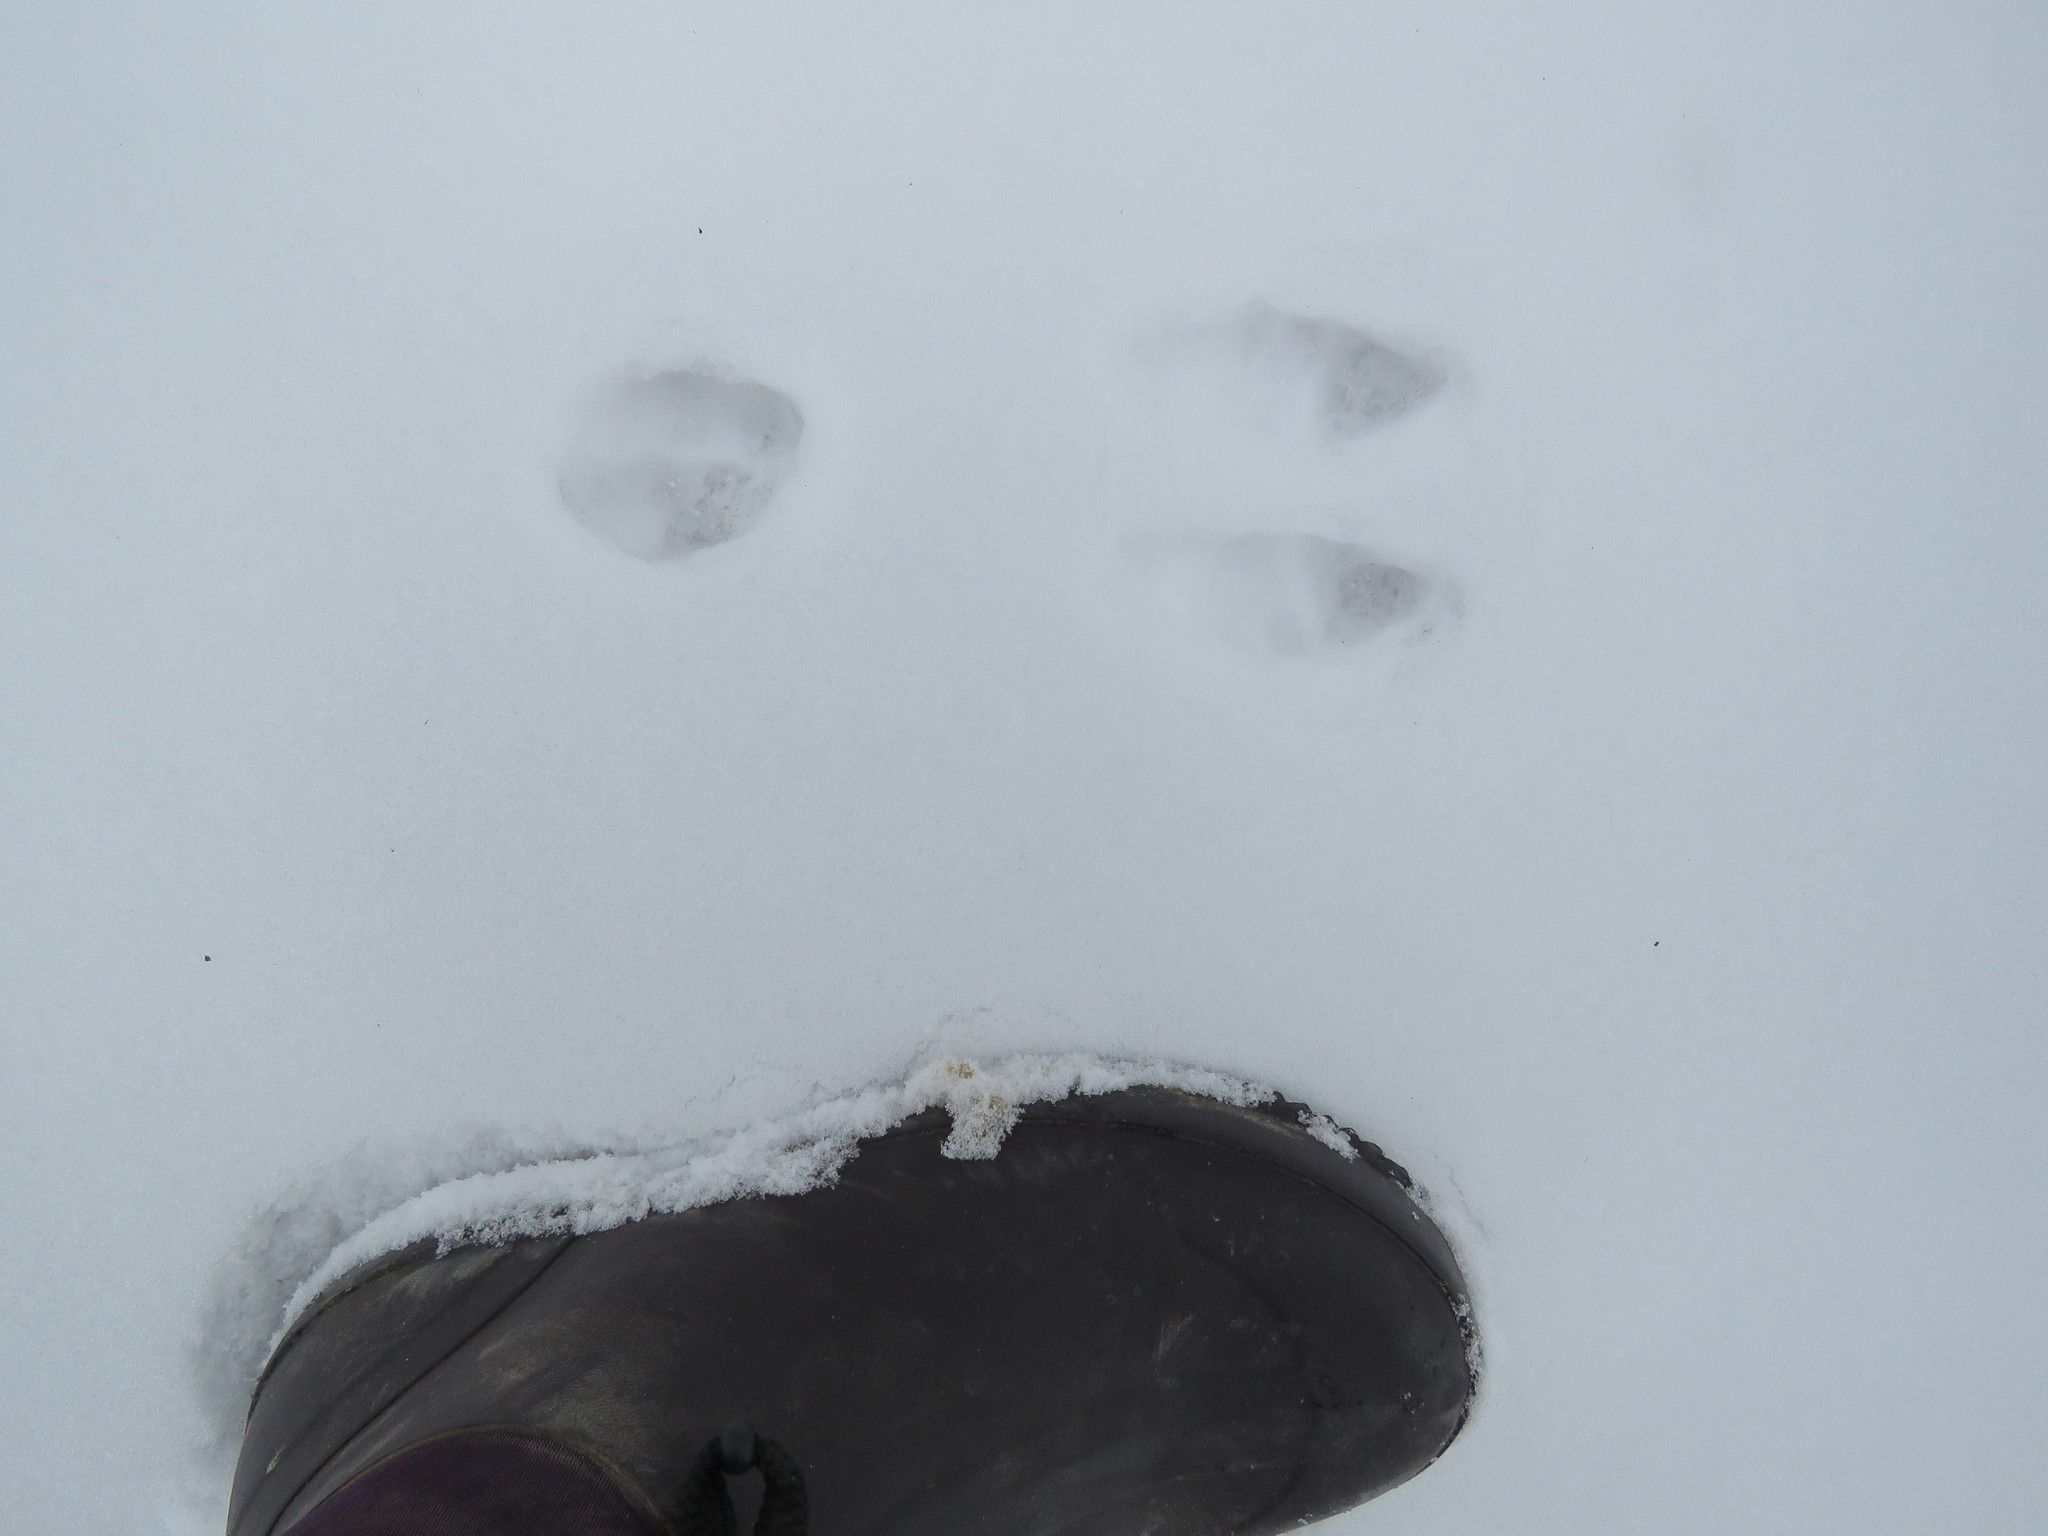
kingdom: Animalia
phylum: Chordata
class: Mammalia
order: Lagomorpha
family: Leporidae
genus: Sylvilagus
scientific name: Sylvilagus floridanus
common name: Eastern cottontail
